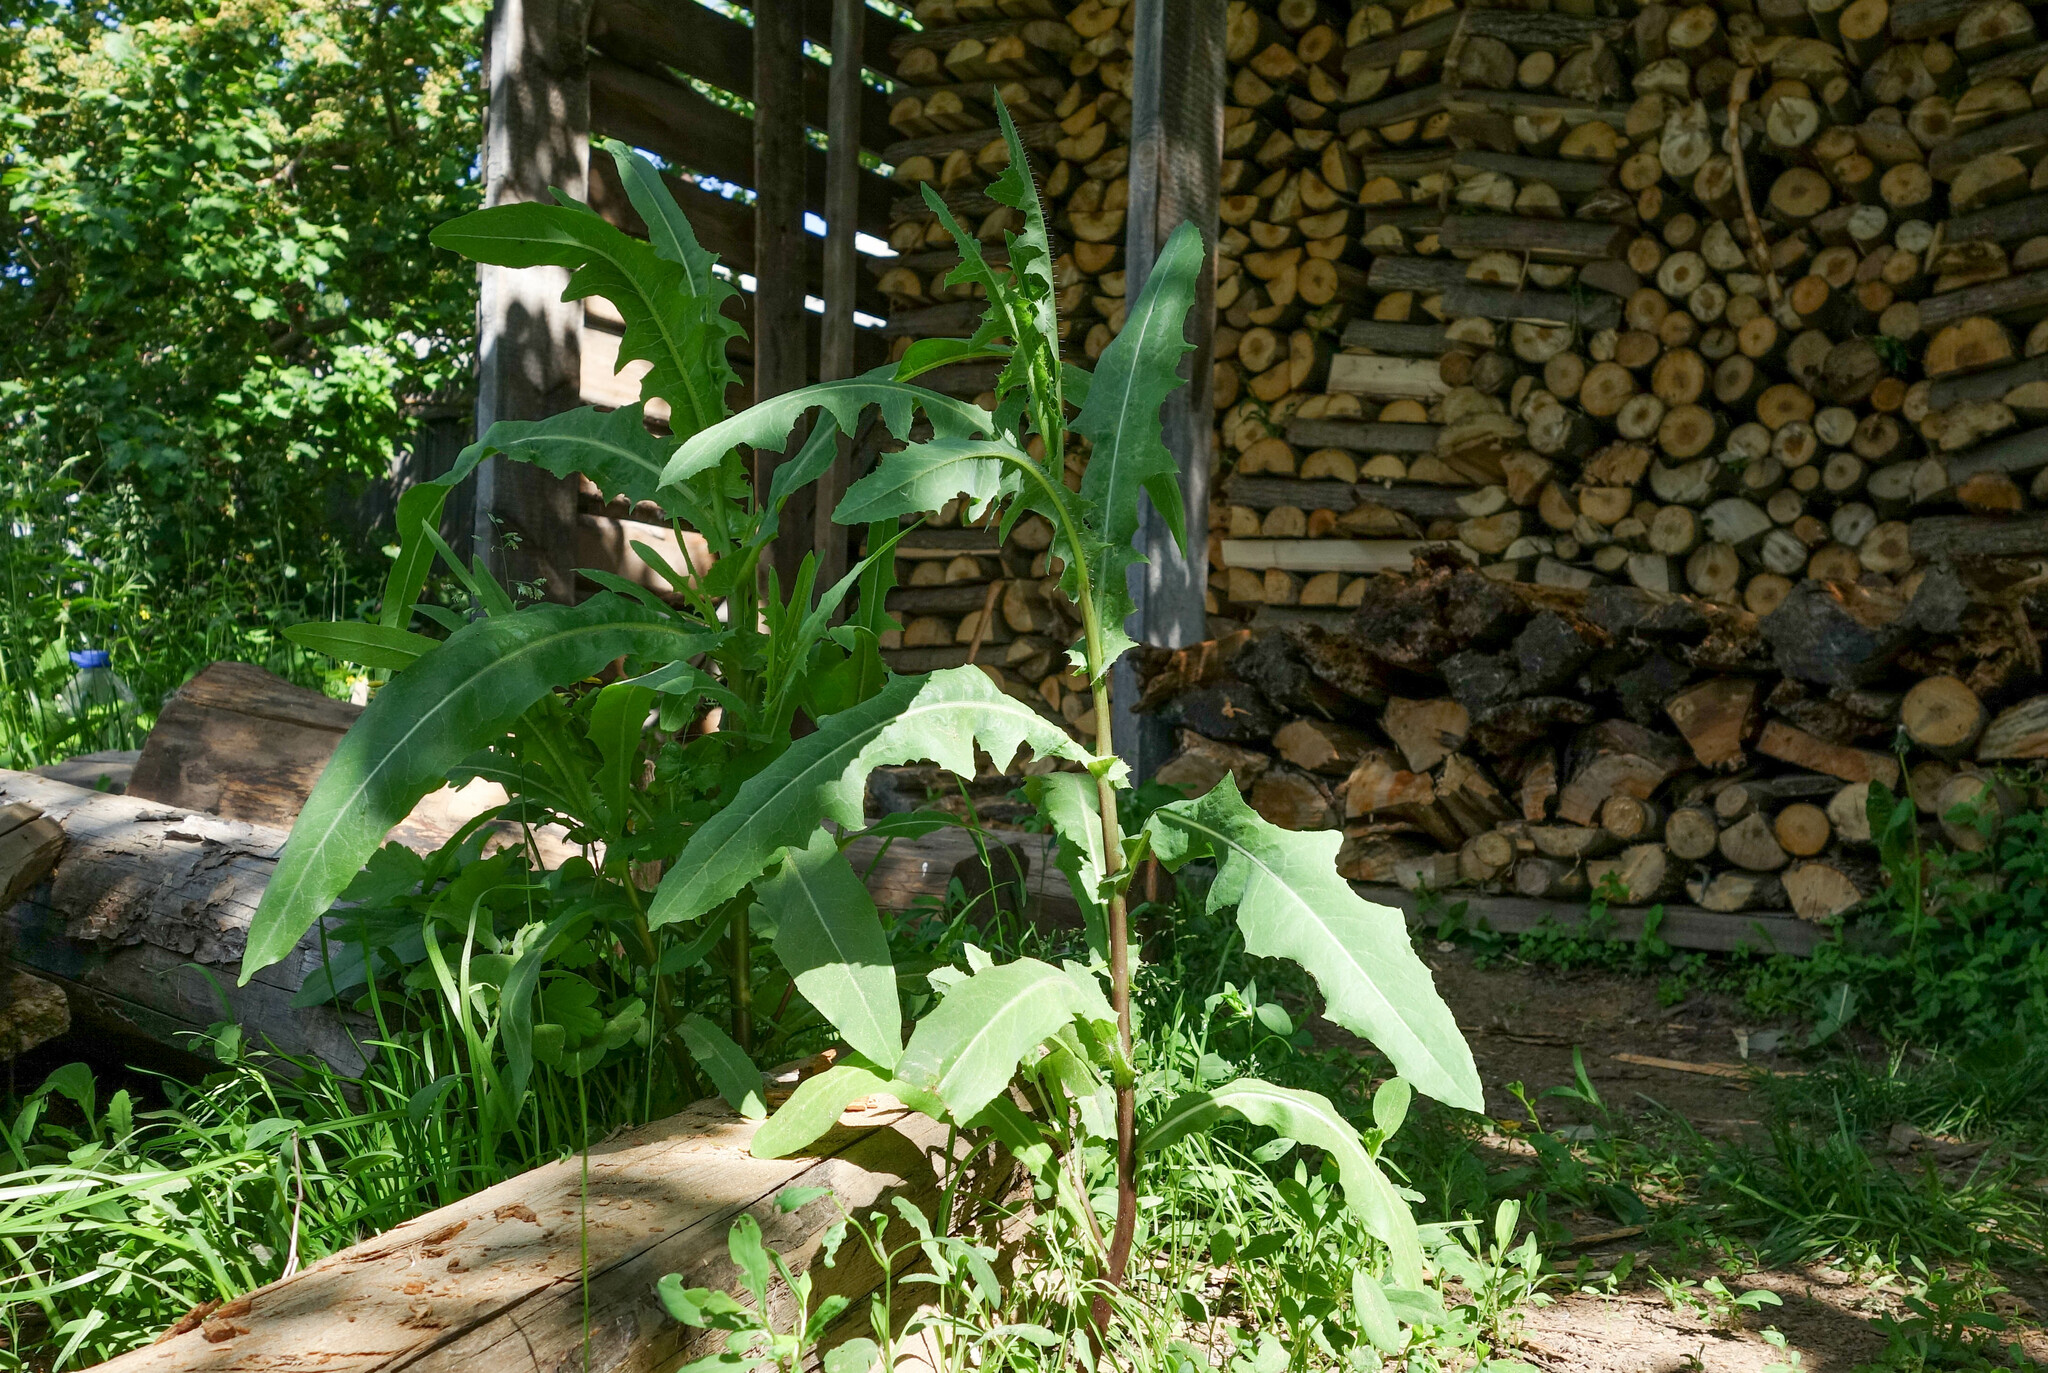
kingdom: Plantae
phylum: Tracheophyta
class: Magnoliopsida
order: Asterales
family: Asteraceae
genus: Lactuca
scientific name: Lactuca serriola
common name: Prickly lettuce
